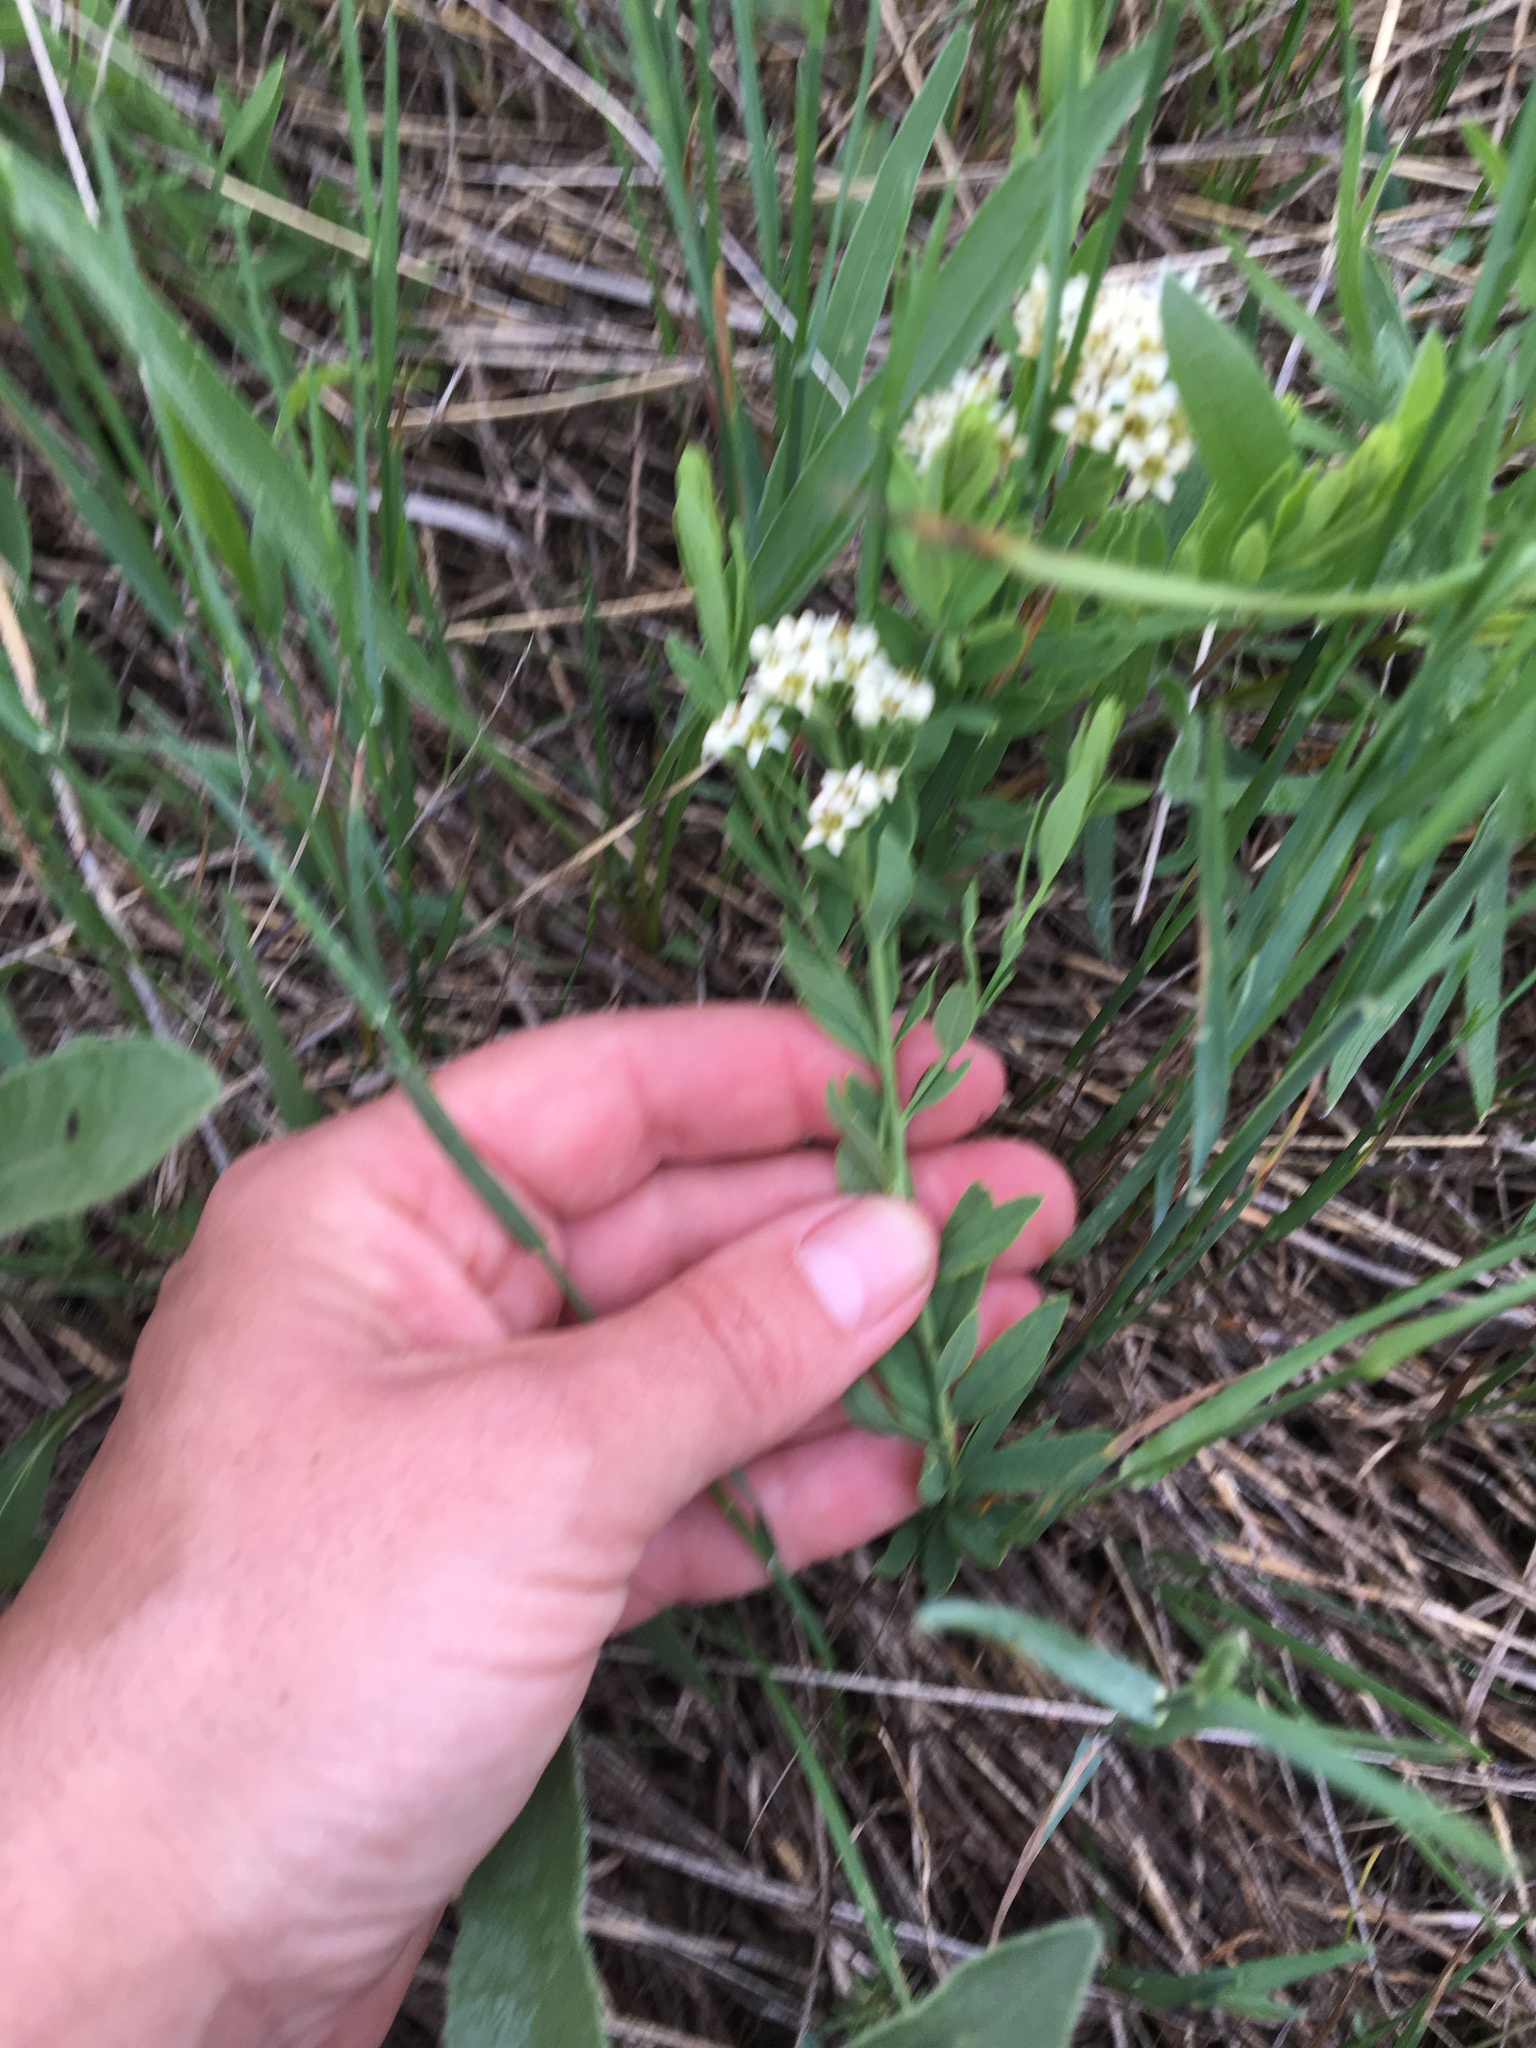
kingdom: Plantae
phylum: Tracheophyta
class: Magnoliopsida
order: Santalales
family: Comandraceae
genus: Comandra
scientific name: Comandra umbellata
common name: Bastard toadflax
